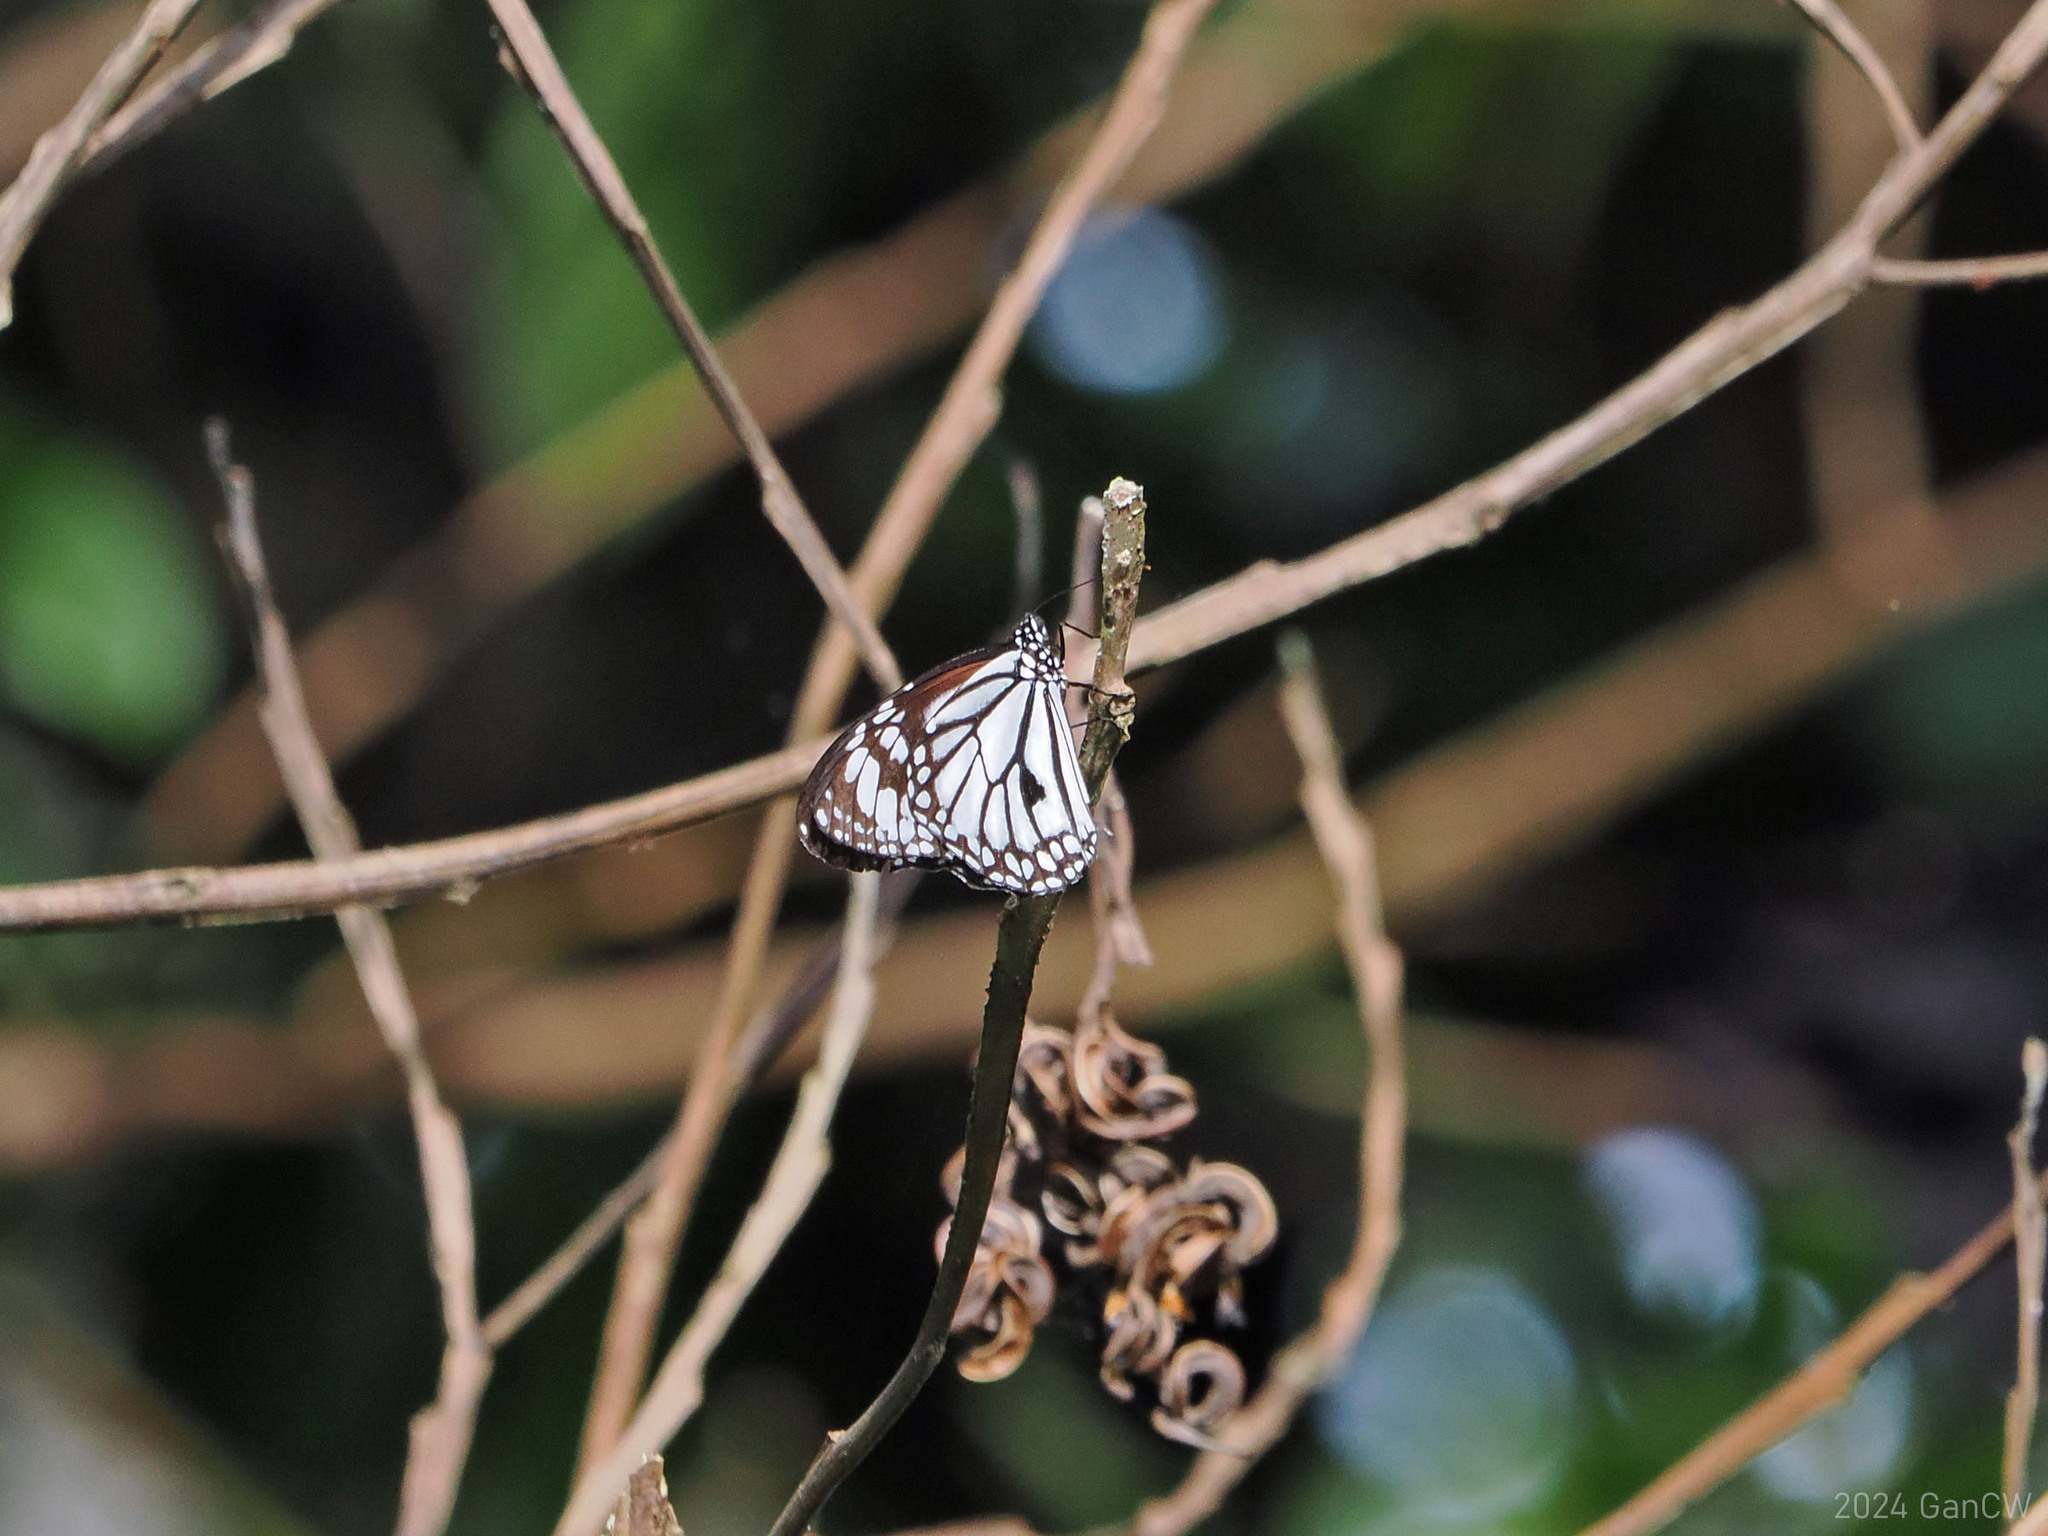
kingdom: Animalia
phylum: Arthropoda
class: Insecta
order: Lepidoptera
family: Nymphalidae
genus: Danaus
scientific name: Danaus melanippus
